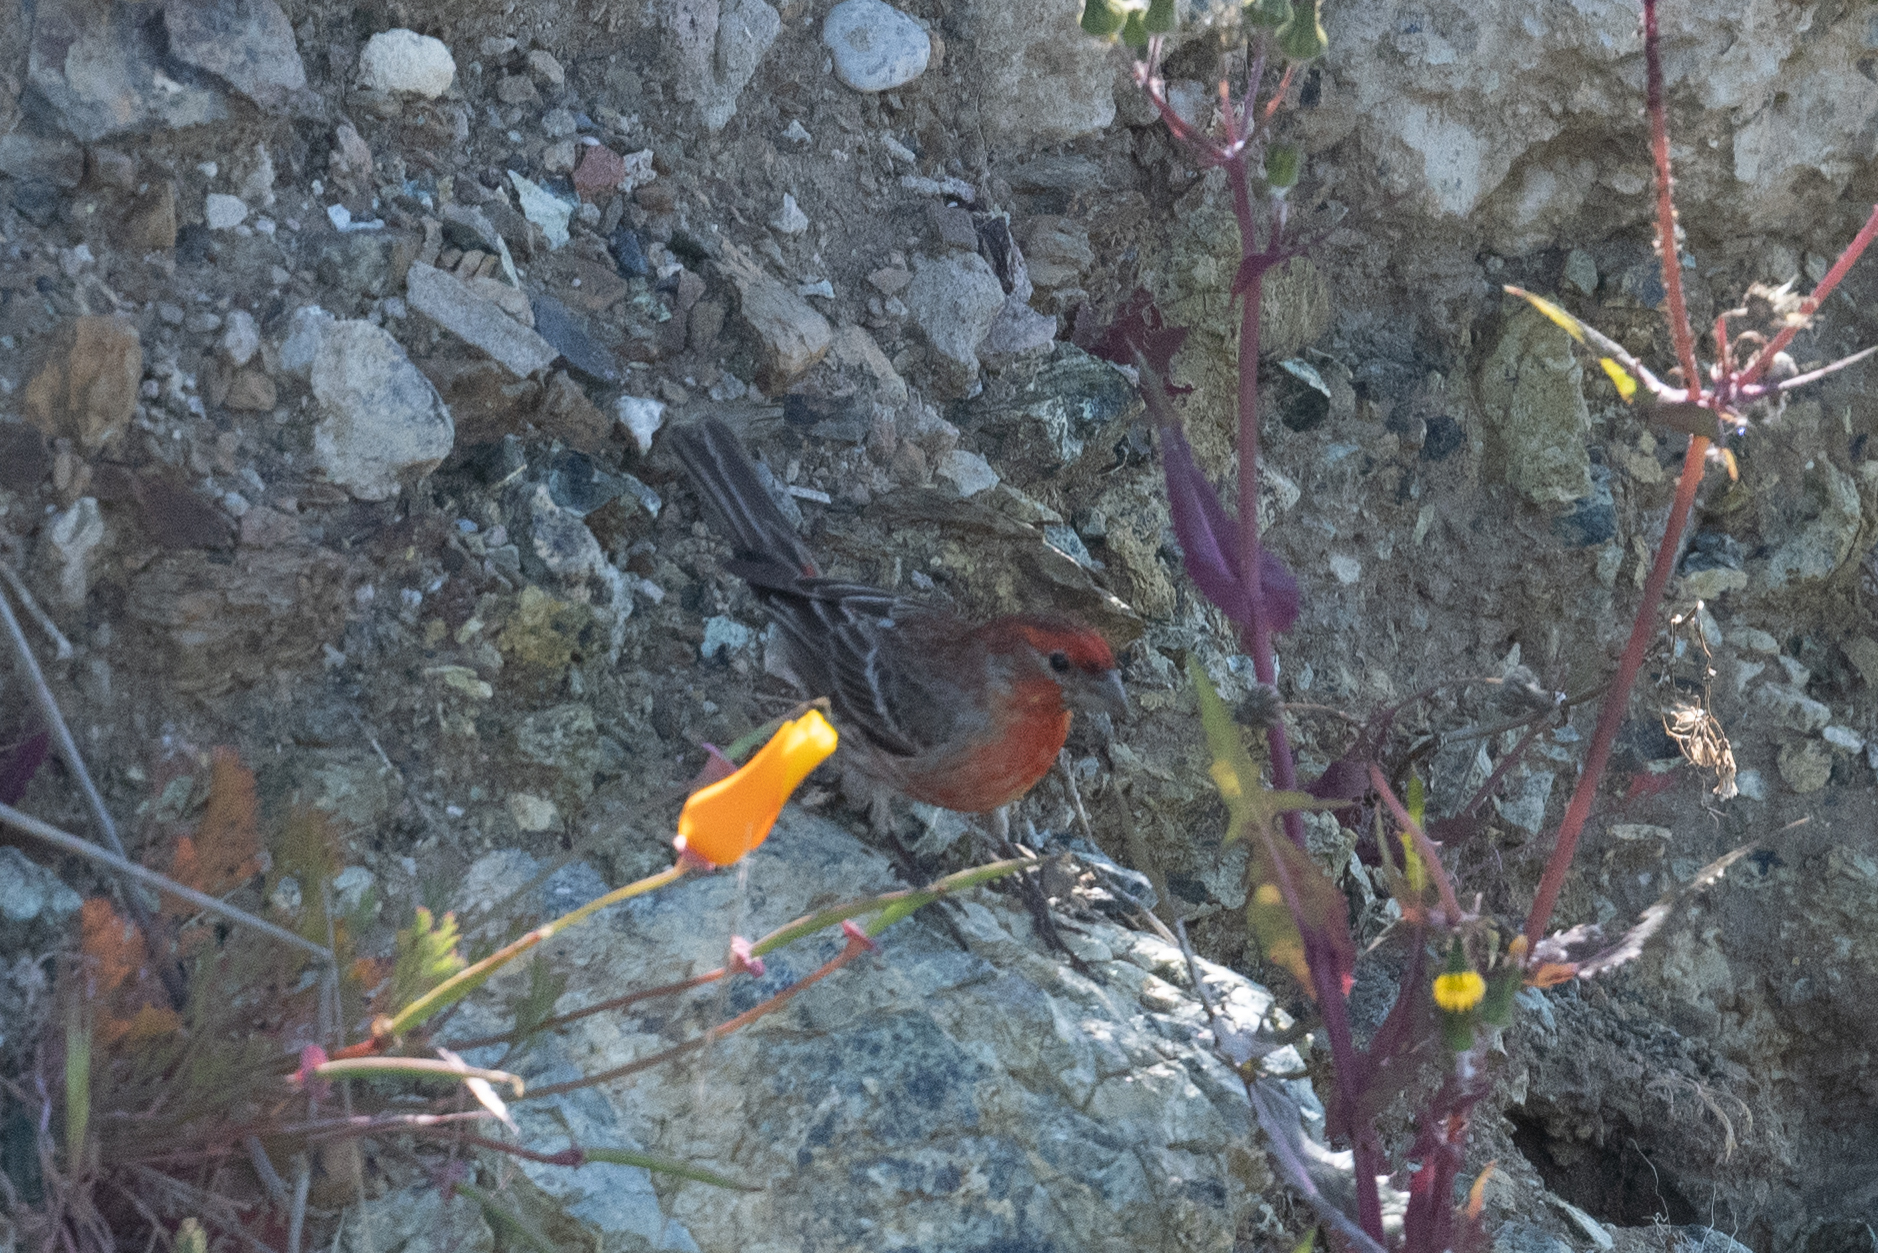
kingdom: Animalia
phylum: Chordata
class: Aves
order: Passeriformes
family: Fringillidae
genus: Haemorhous
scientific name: Haemorhous mexicanus
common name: House finch
